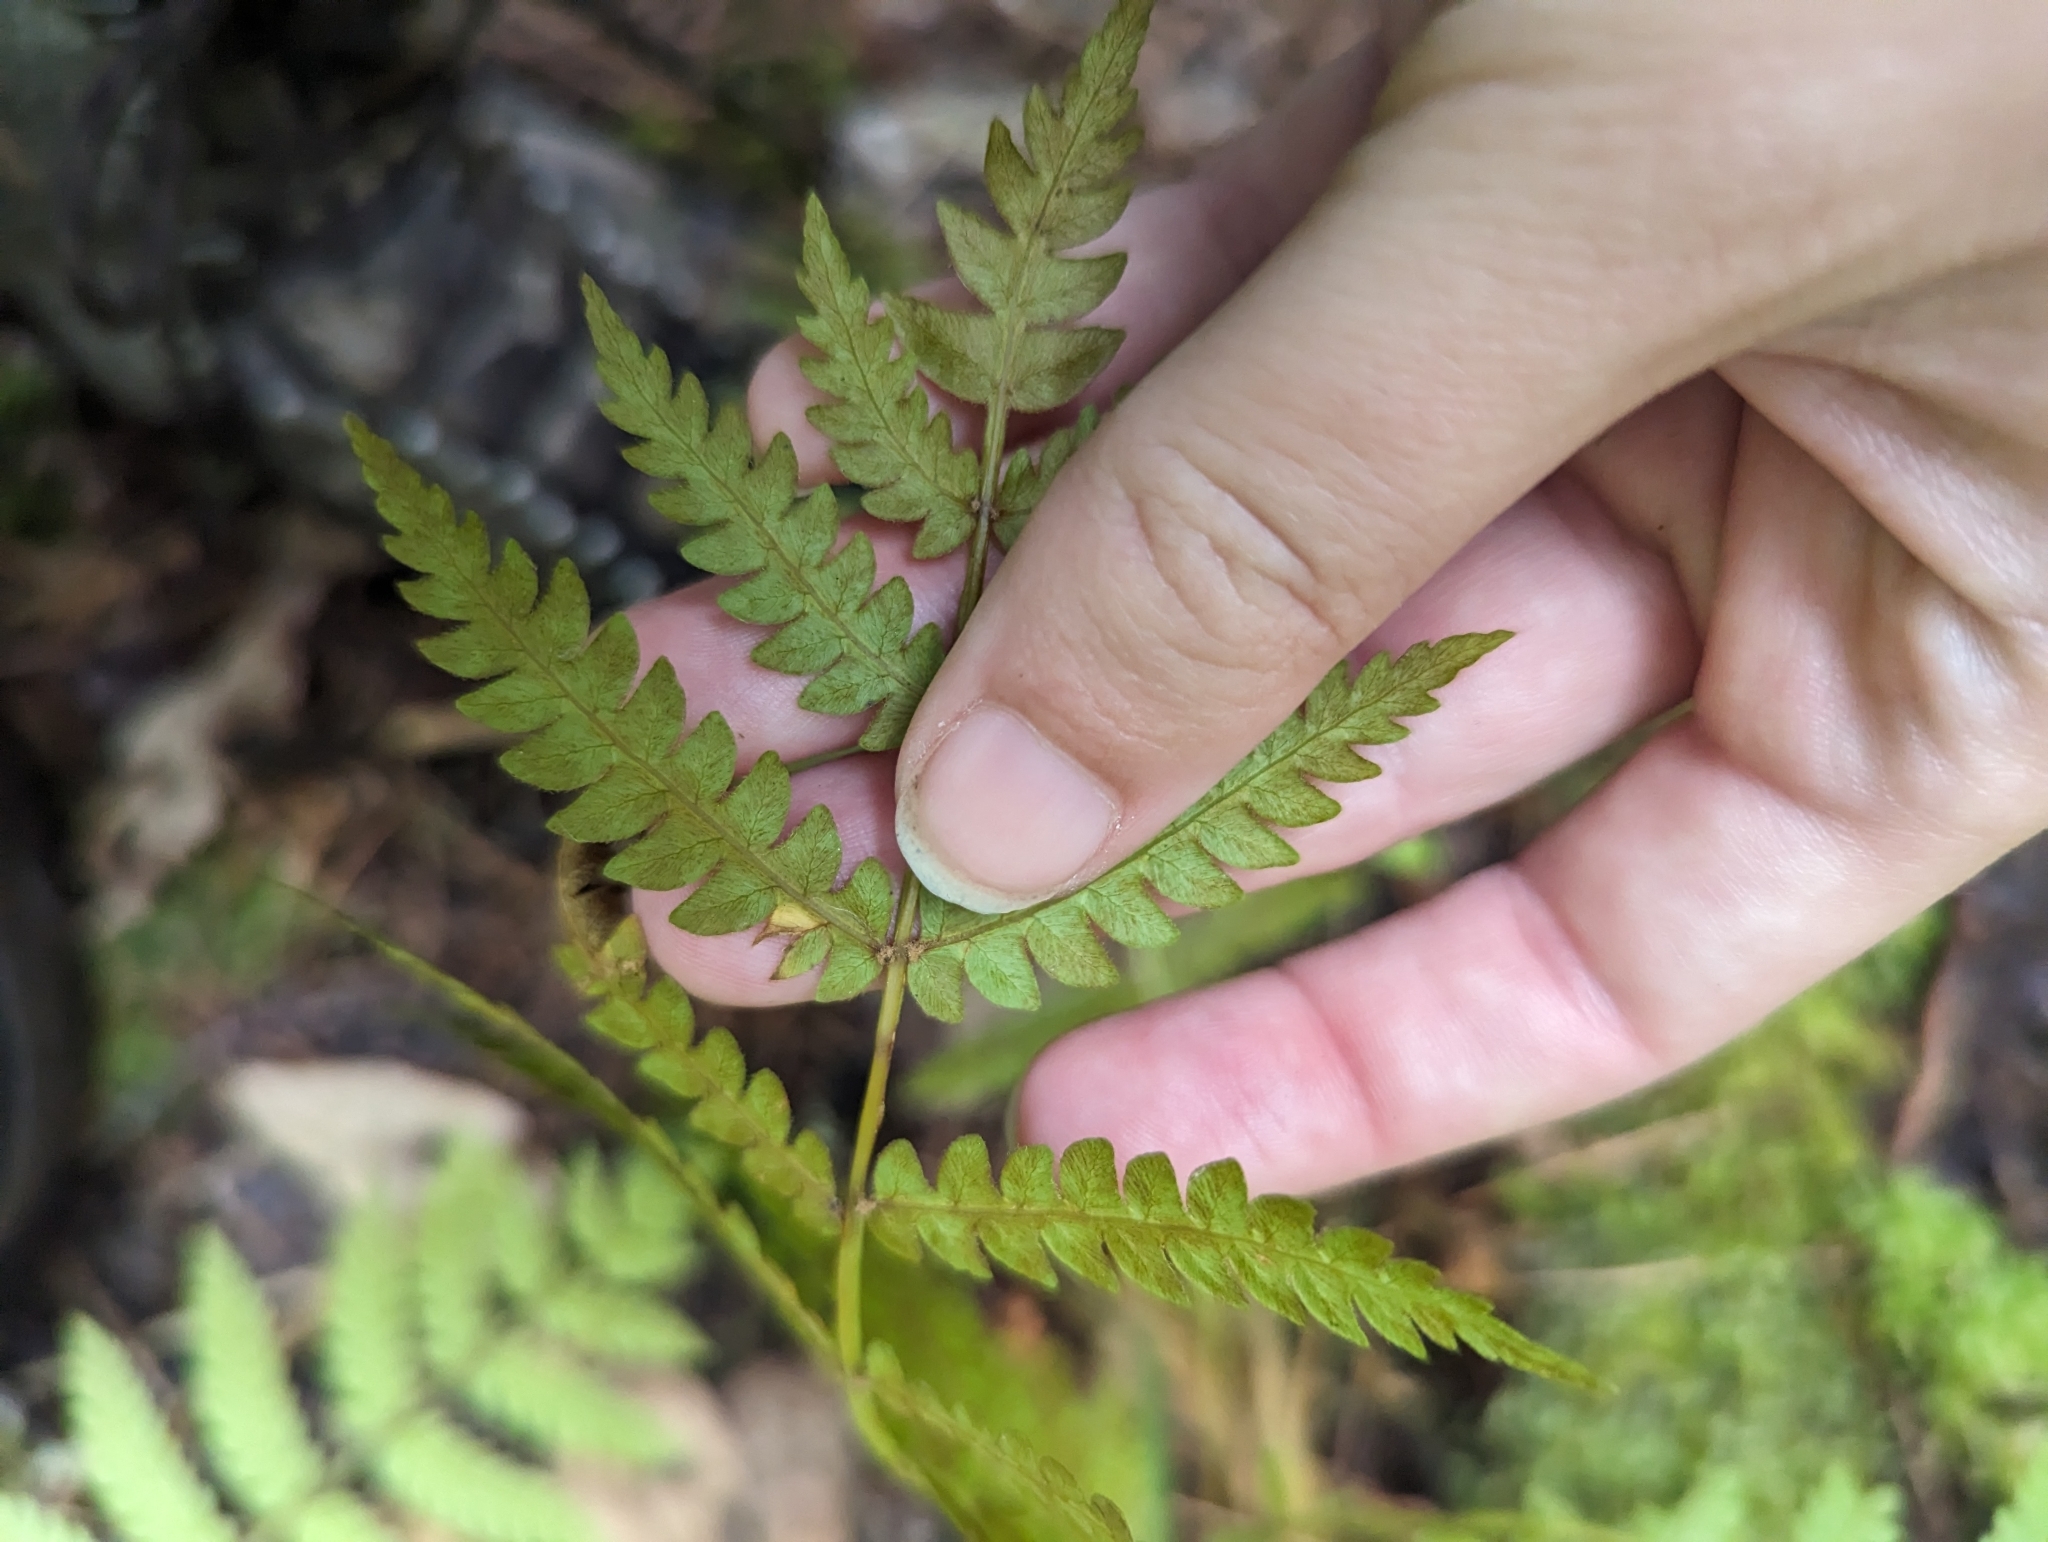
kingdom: Plantae
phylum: Tracheophyta
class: Polypodiopsida
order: Osmundales
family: Osmundaceae
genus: Osmundastrum
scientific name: Osmundastrum cinnamomeum
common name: Cinnamon fern
